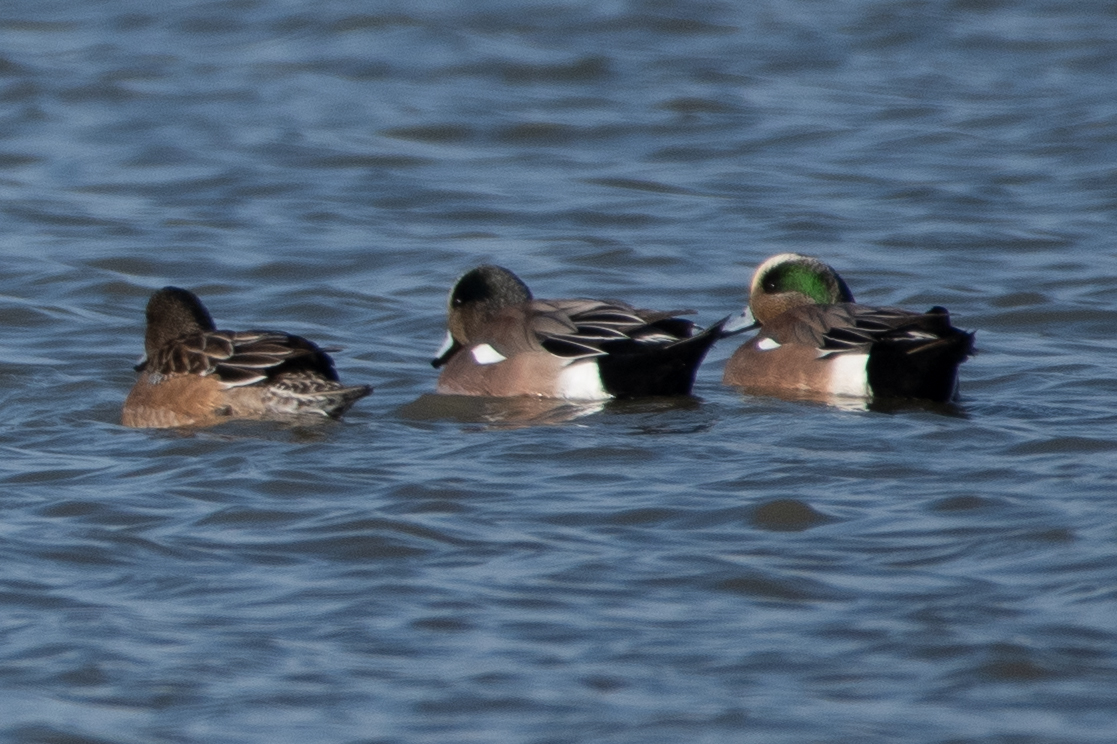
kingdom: Animalia
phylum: Chordata
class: Aves
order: Anseriformes
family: Anatidae
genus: Mareca
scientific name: Mareca americana
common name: American wigeon
